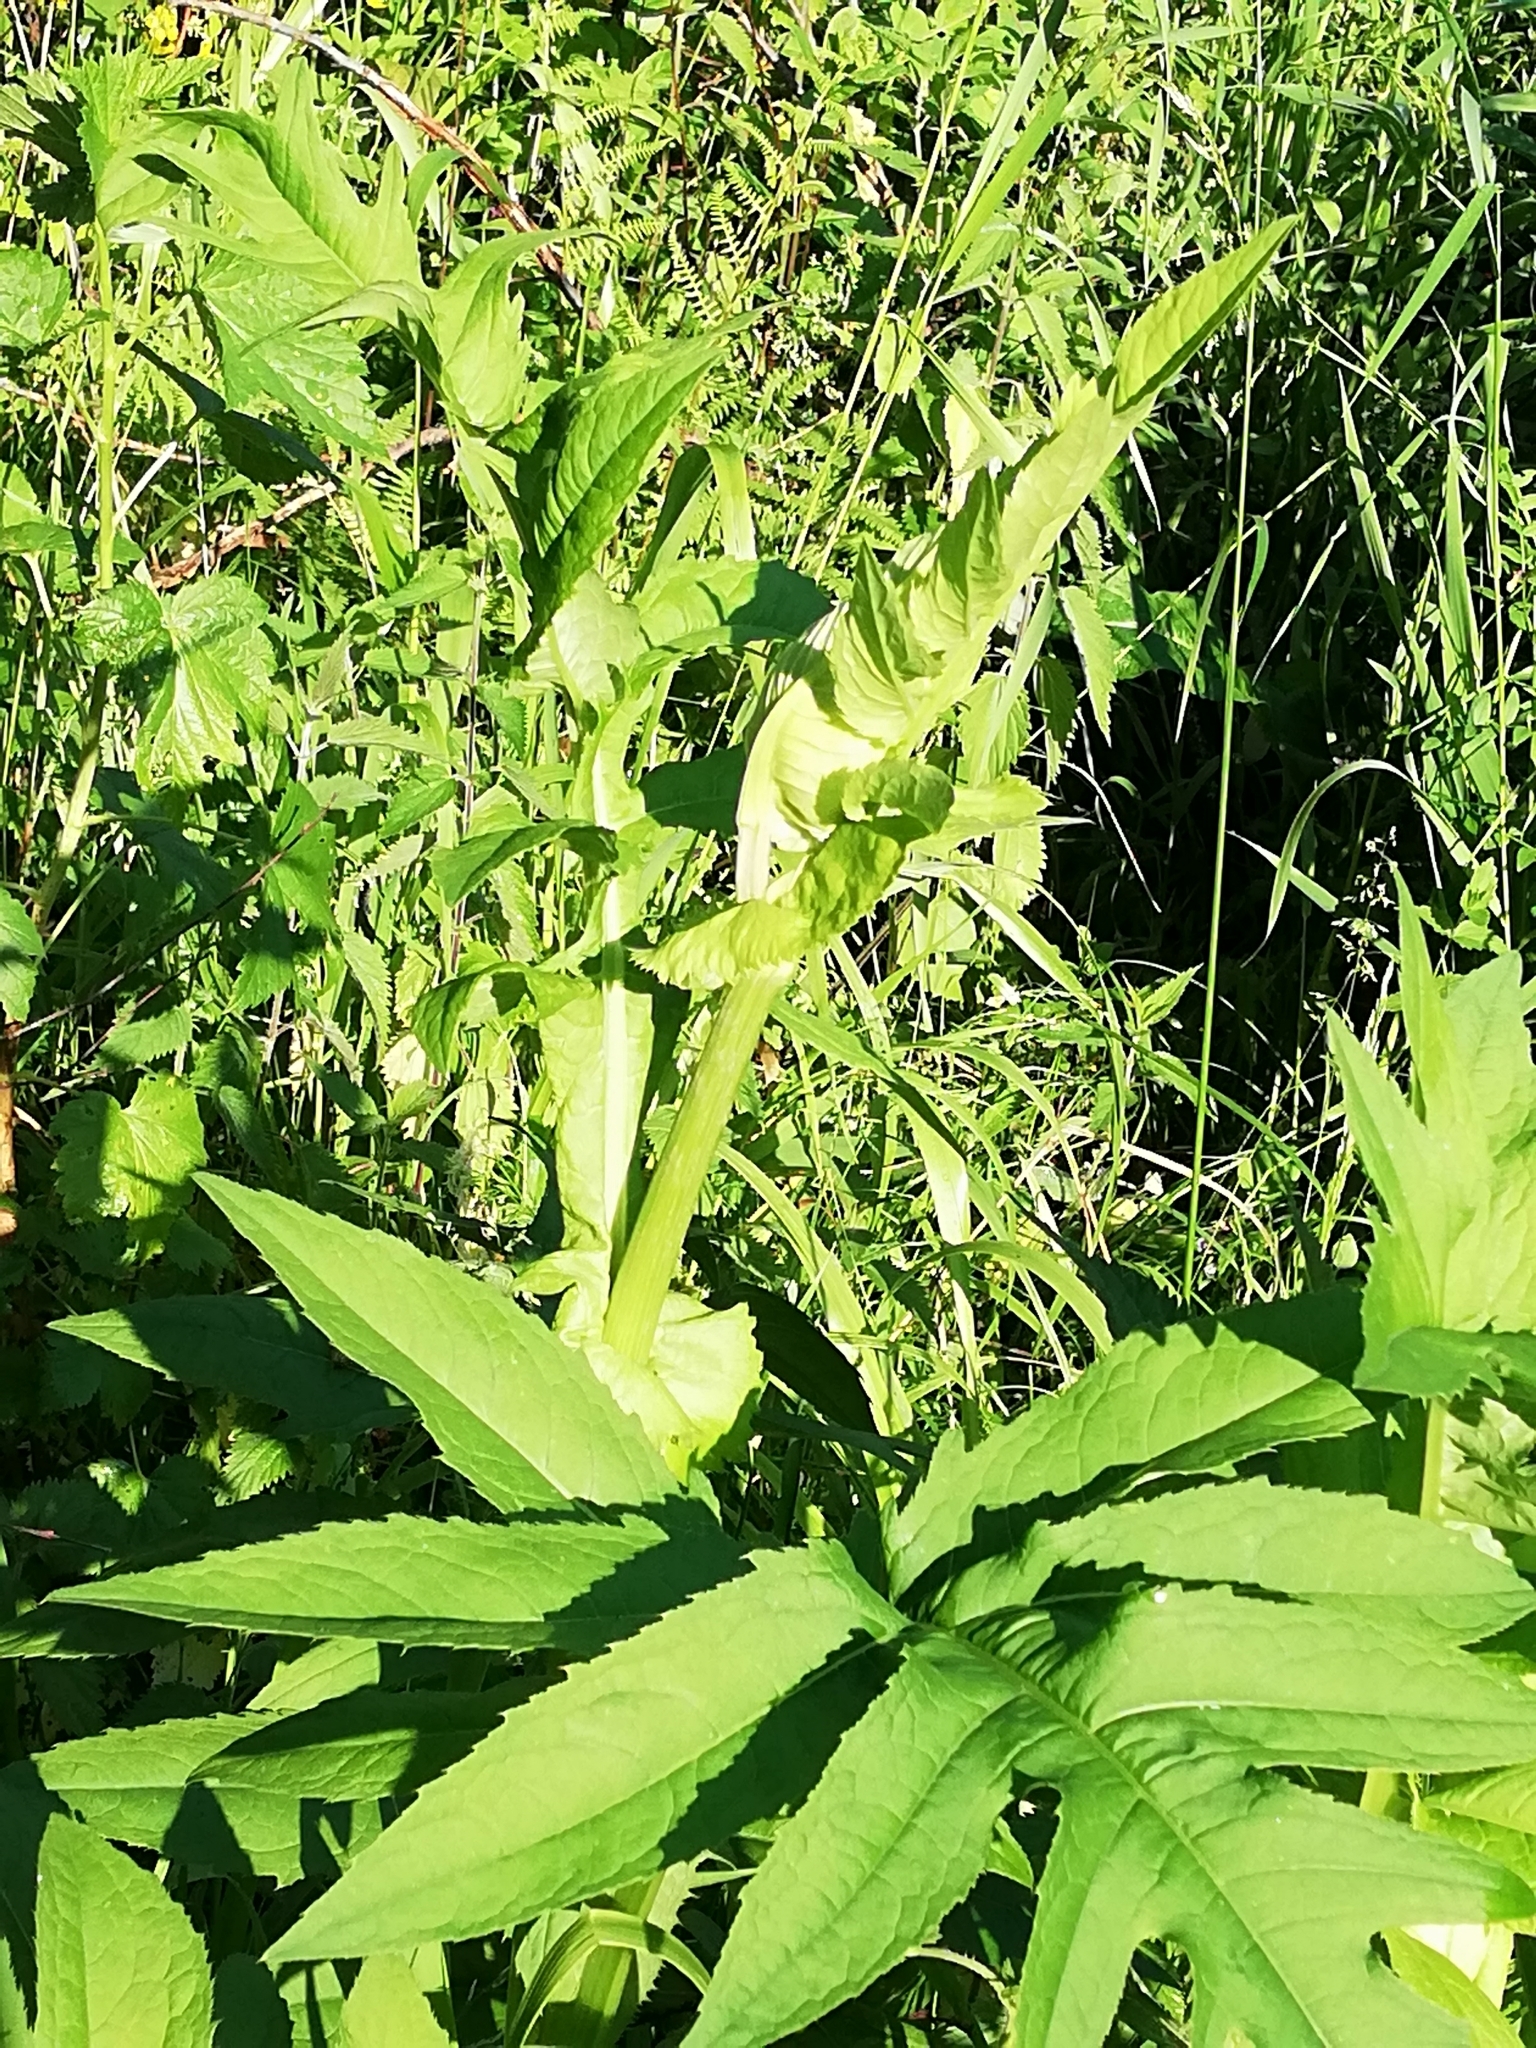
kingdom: Plantae
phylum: Tracheophyta
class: Magnoliopsida
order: Asterales
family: Asteraceae
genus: Cirsium
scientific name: Cirsium oleraceum
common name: Cabbage thistle
